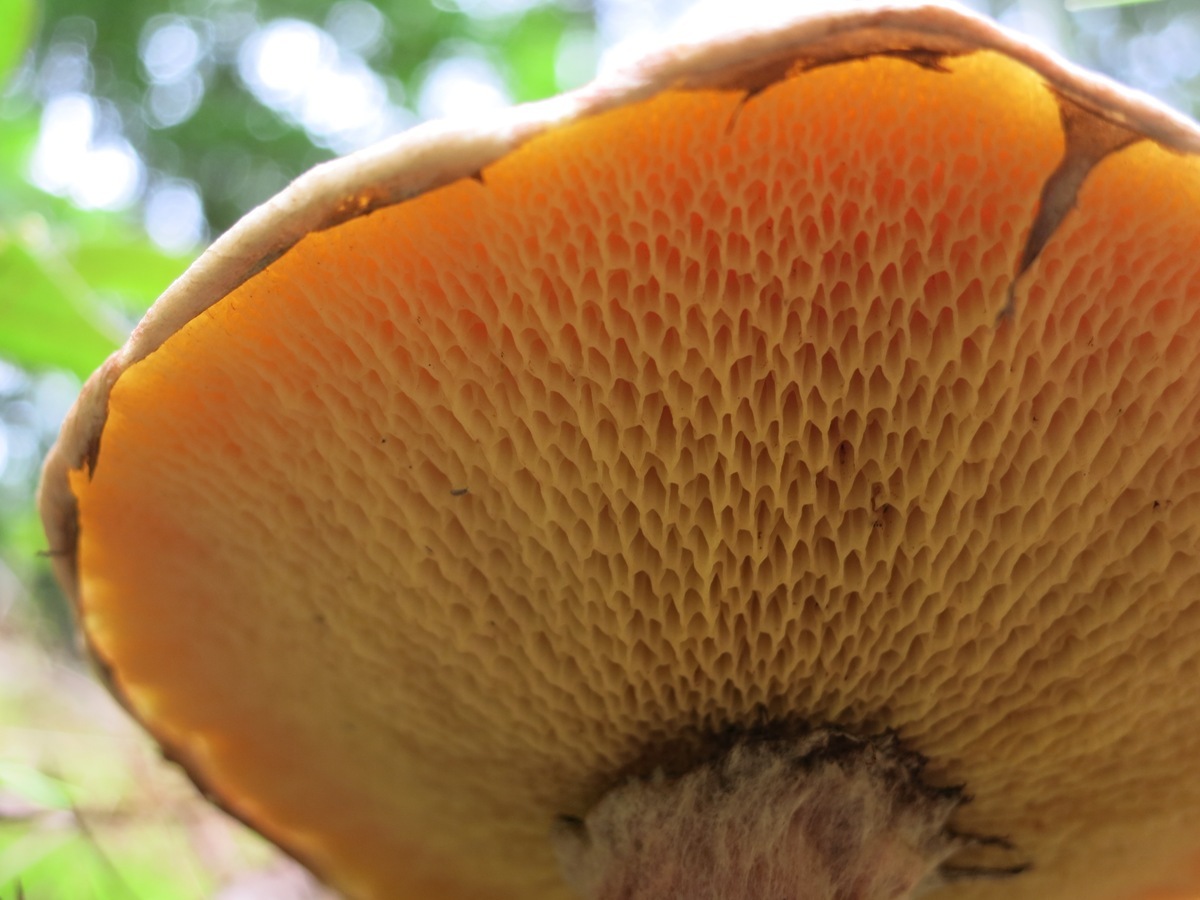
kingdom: Fungi
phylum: Basidiomycota
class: Agaricomycetes
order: Boletales
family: Suillaceae
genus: Suillus
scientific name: Suillus spraguei
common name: Painted suillus
